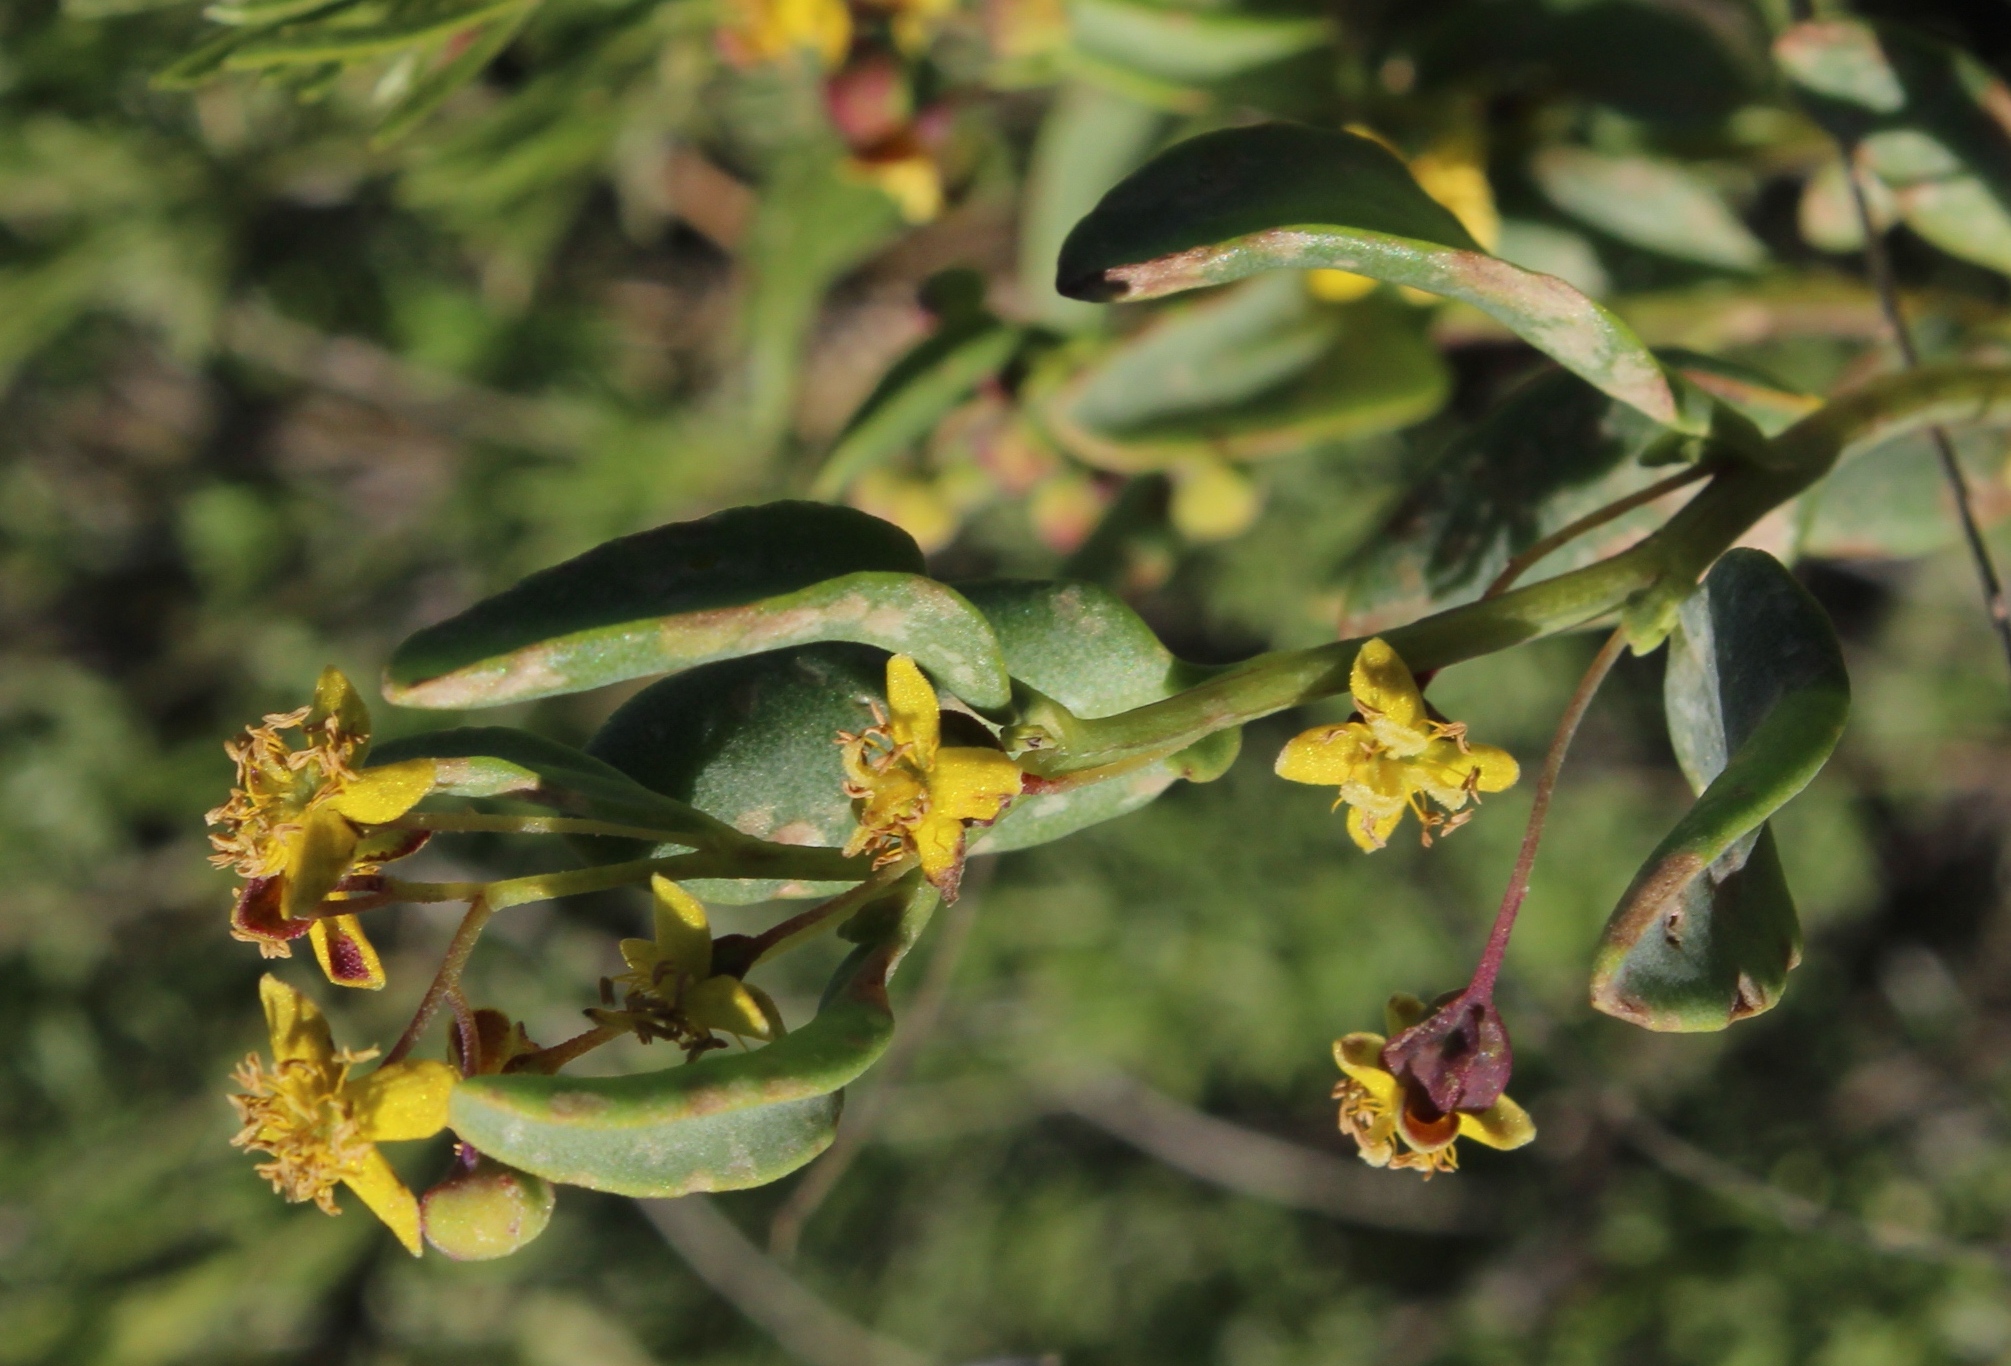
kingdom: Plantae
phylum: Tracheophyta
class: Magnoliopsida
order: Caryophyllales
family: Aizoaceae
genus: Tetragonia
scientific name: Tetragonia fruticosa
